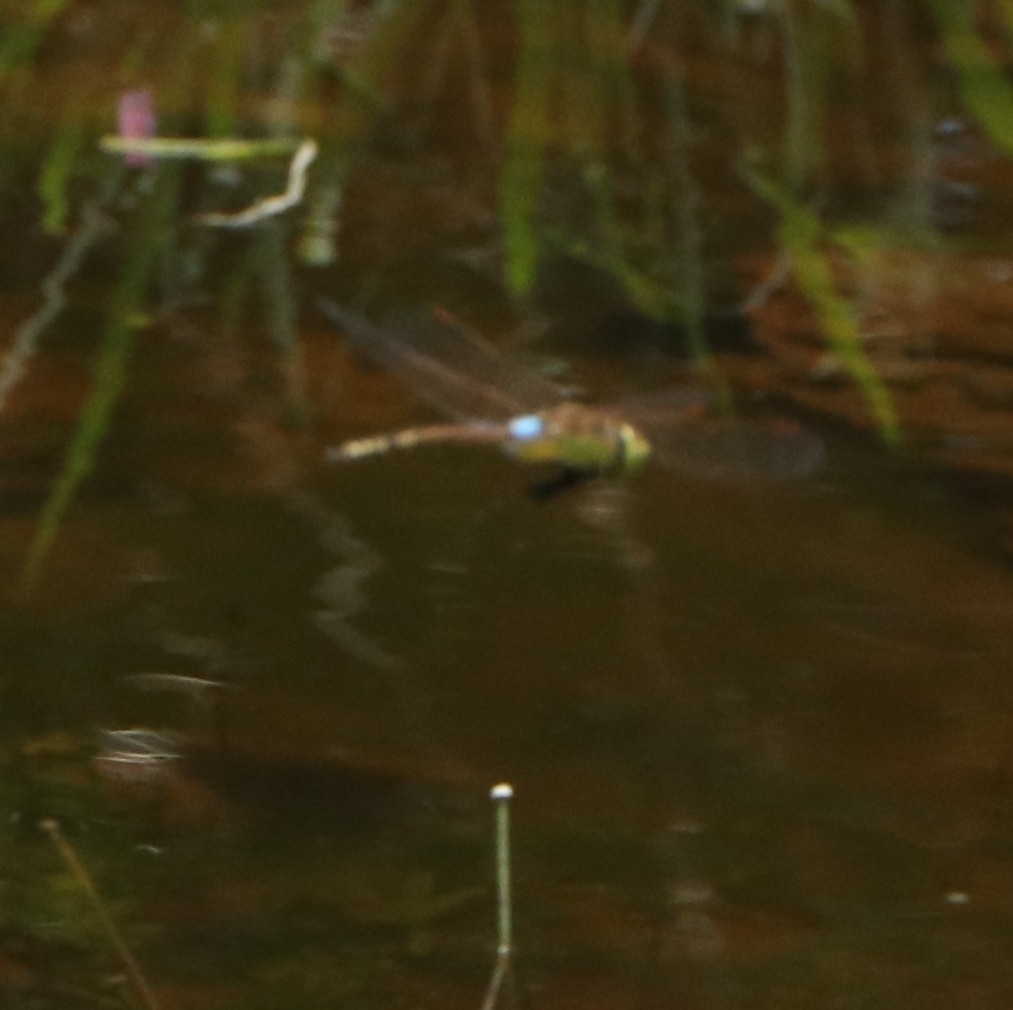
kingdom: Animalia
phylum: Arthropoda
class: Insecta
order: Odonata
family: Aeshnidae
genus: Anax
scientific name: Anax ephippiger
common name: Vagrant emperor
